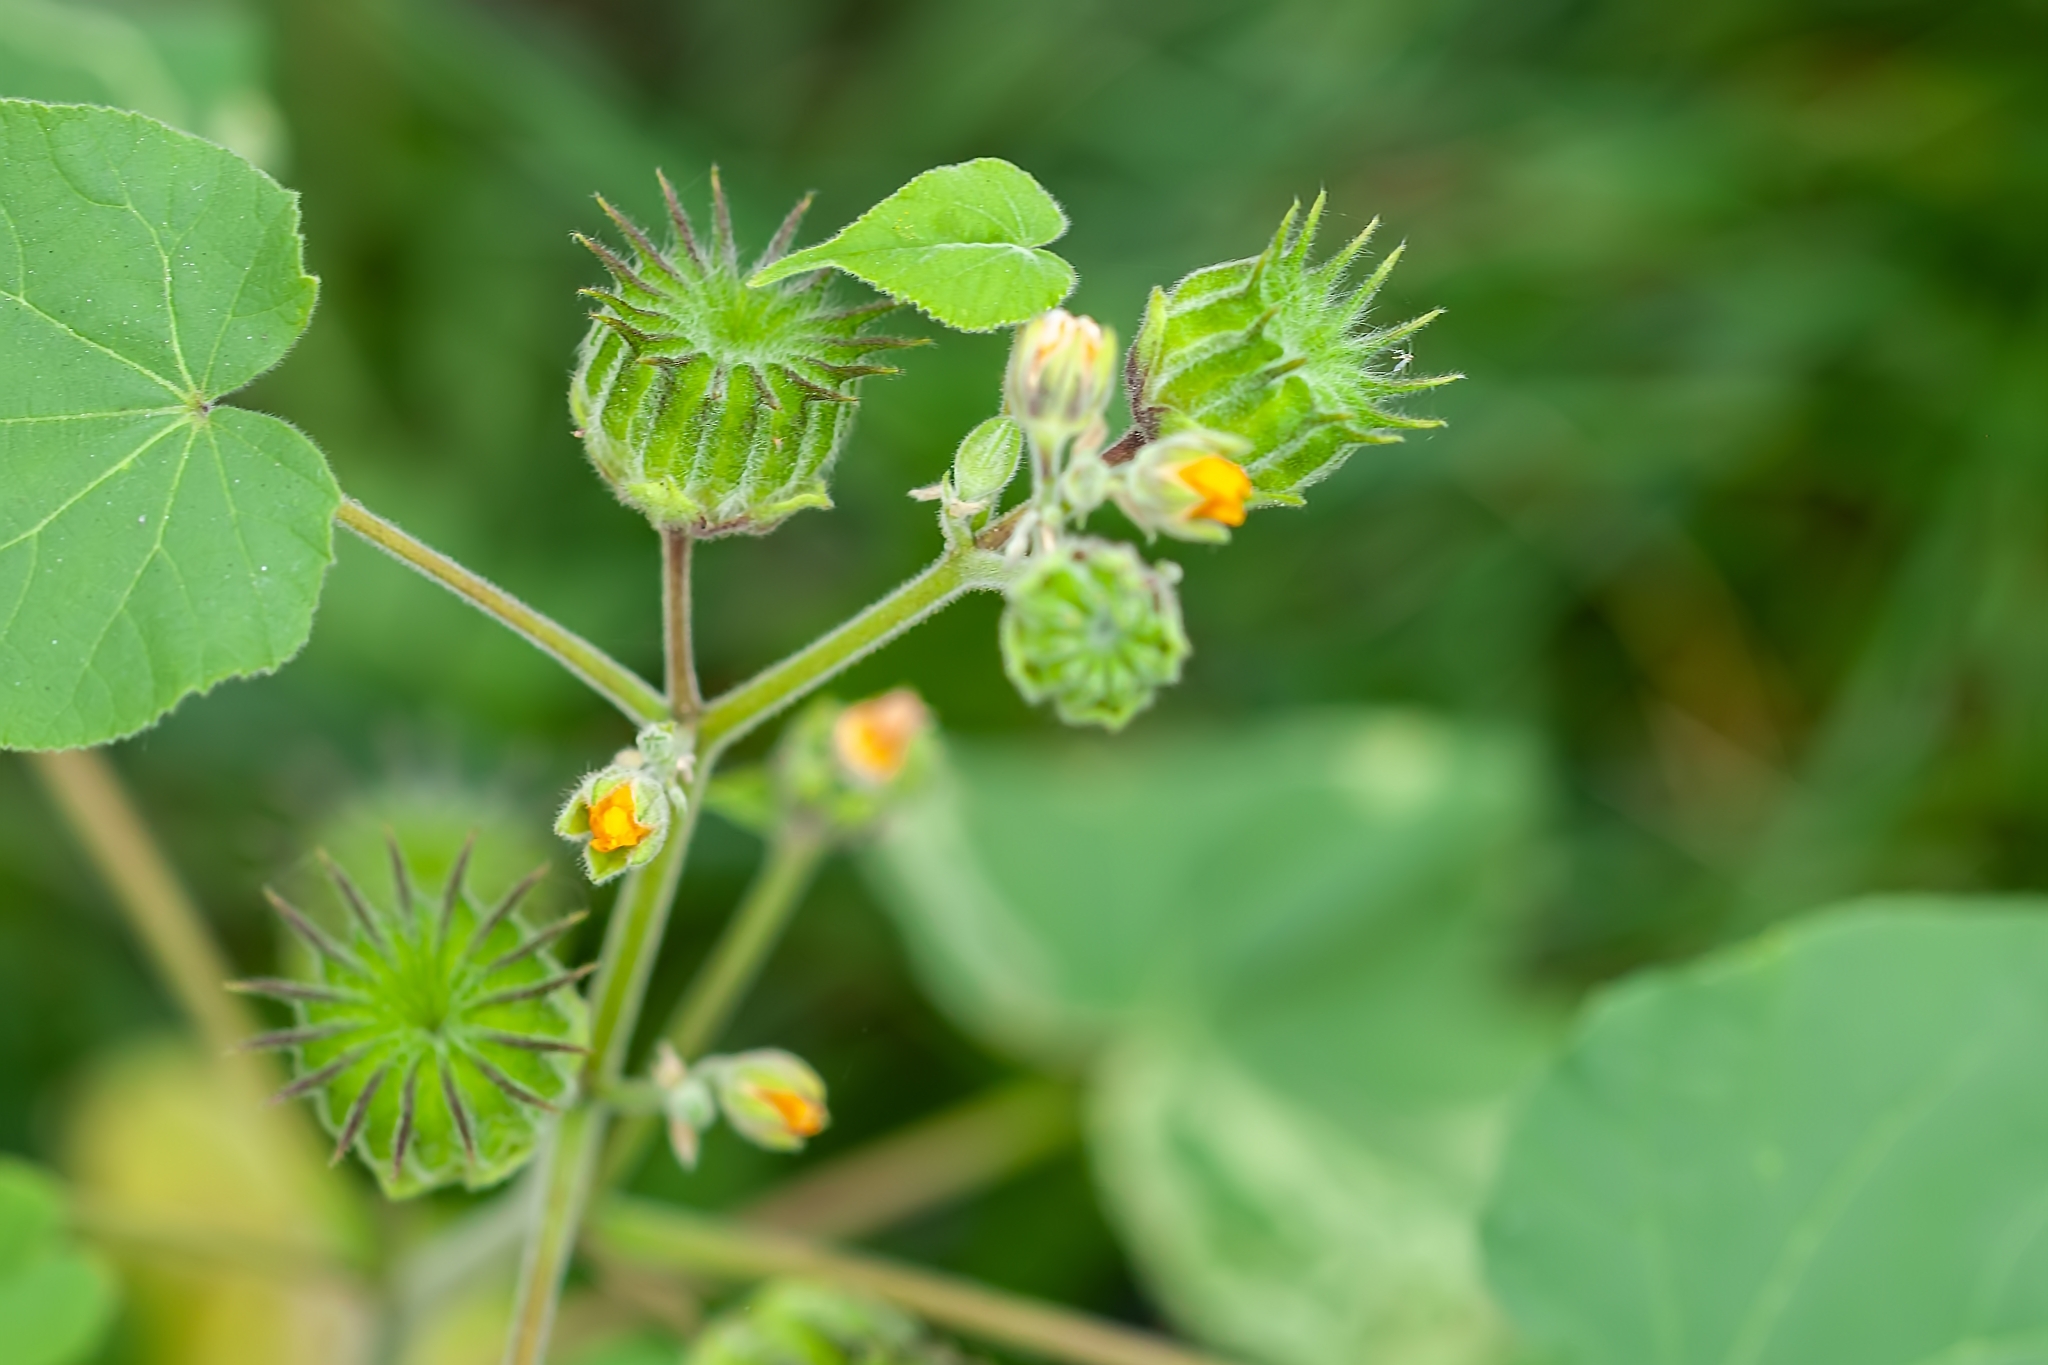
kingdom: Plantae
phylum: Tracheophyta
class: Magnoliopsida
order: Malvales
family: Malvaceae
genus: Abutilon
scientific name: Abutilon theophrasti
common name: Velvetleaf
